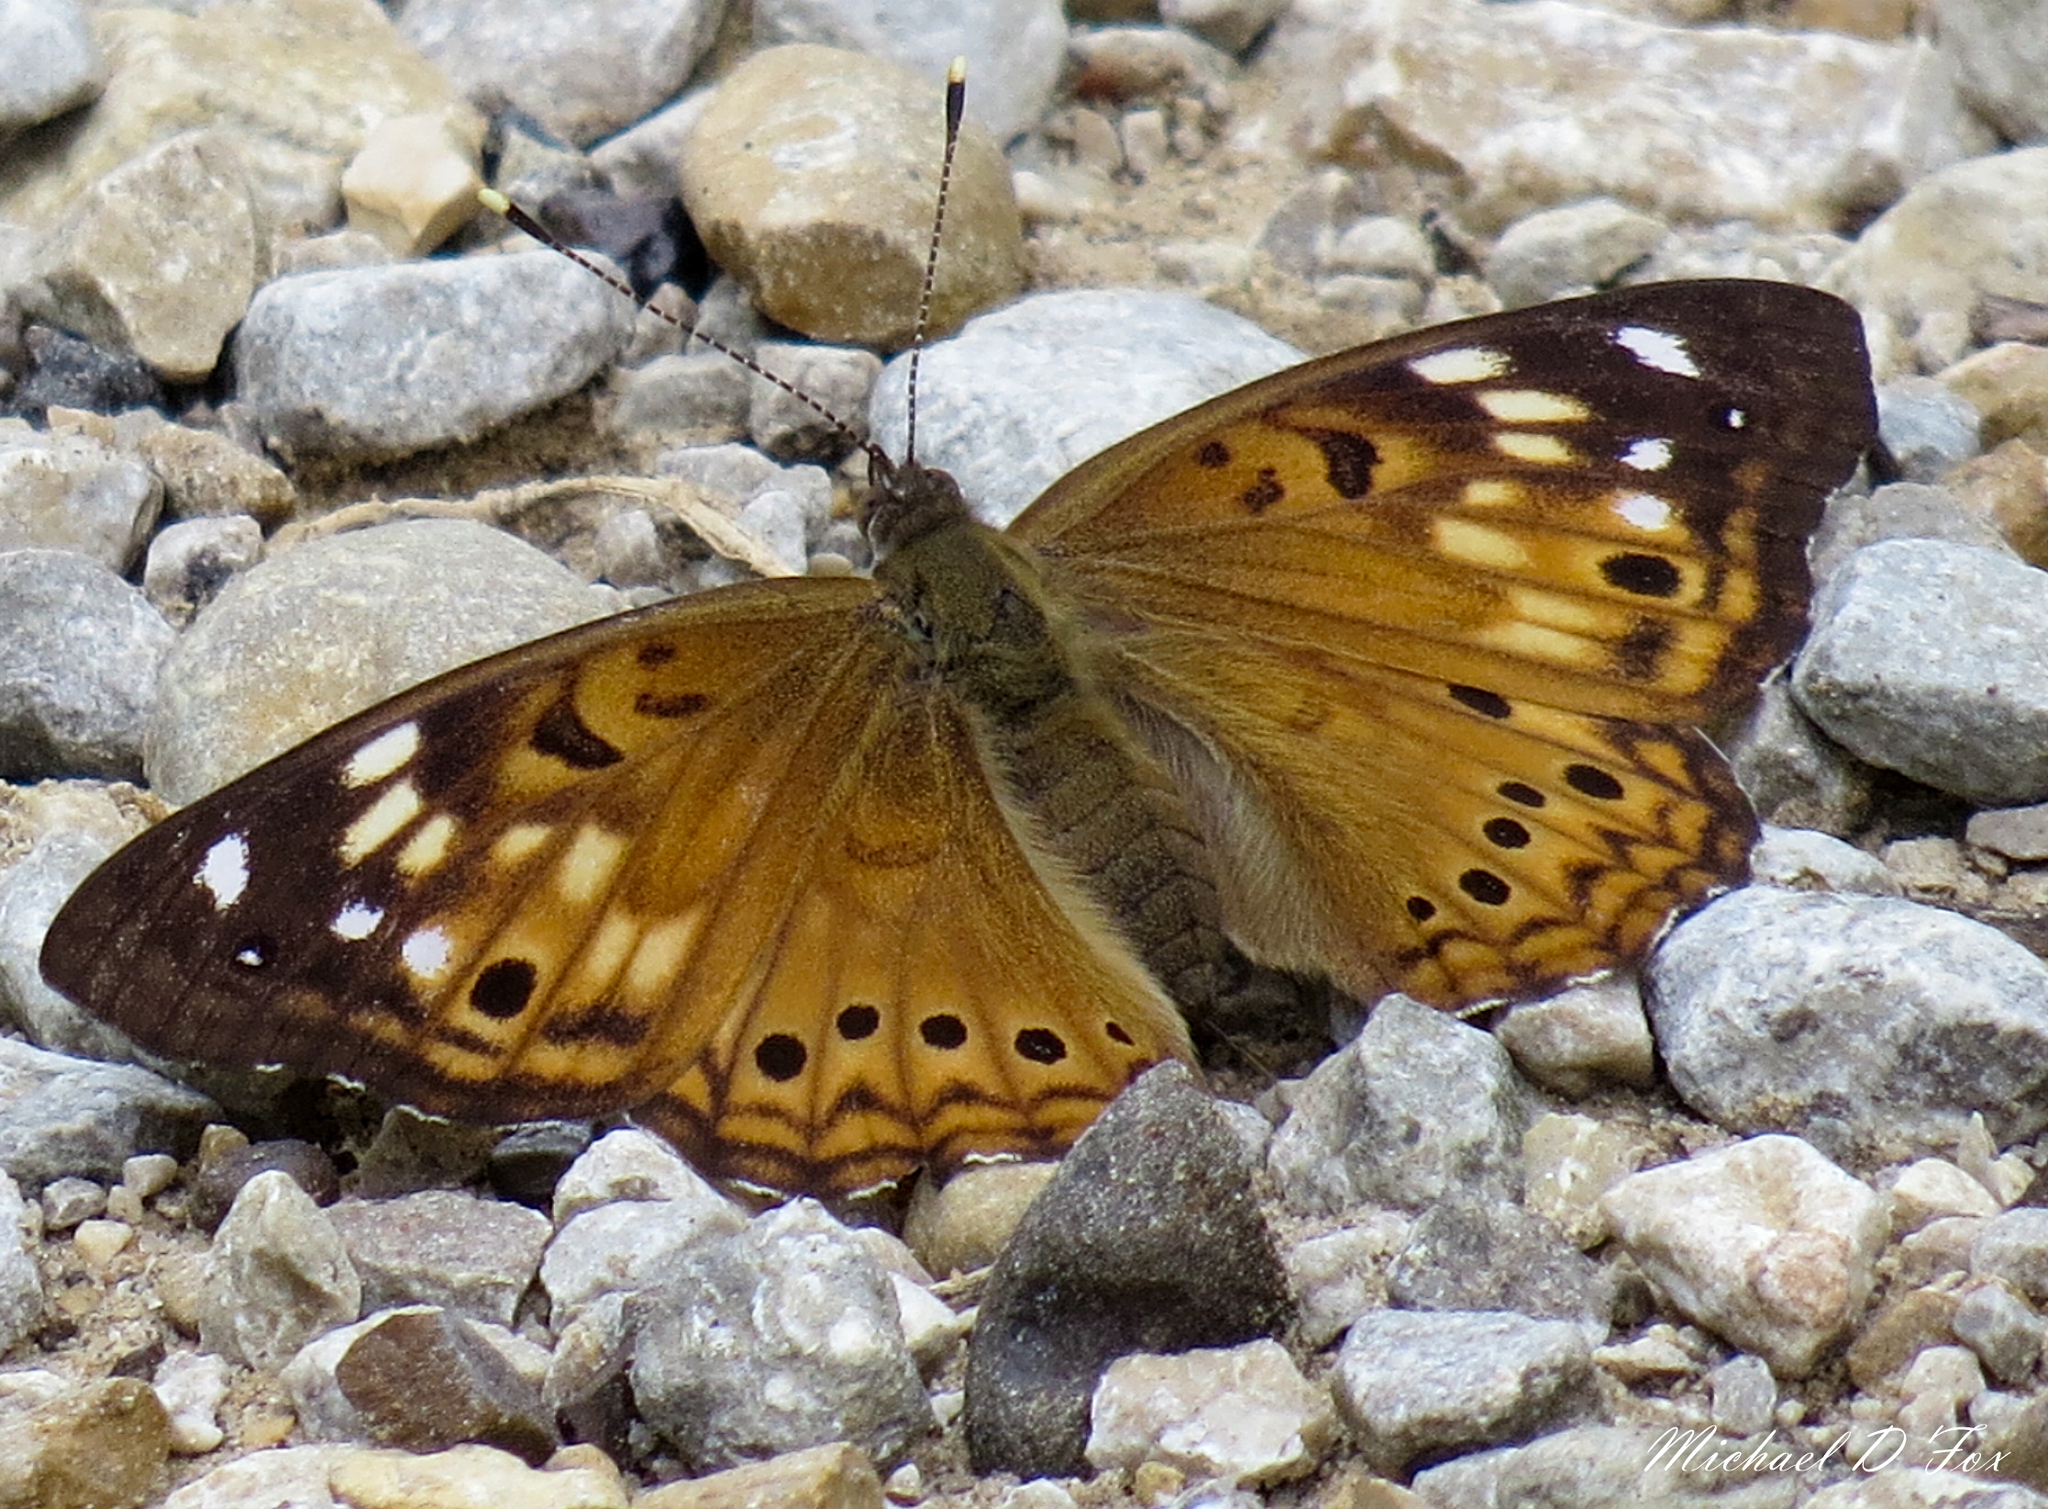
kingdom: Animalia
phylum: Arthropoda
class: Insecta
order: Lepidoptera
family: Nymphalidae
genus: Asterocampa
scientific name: Asterocampa celtis
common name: Hackberry emperor
